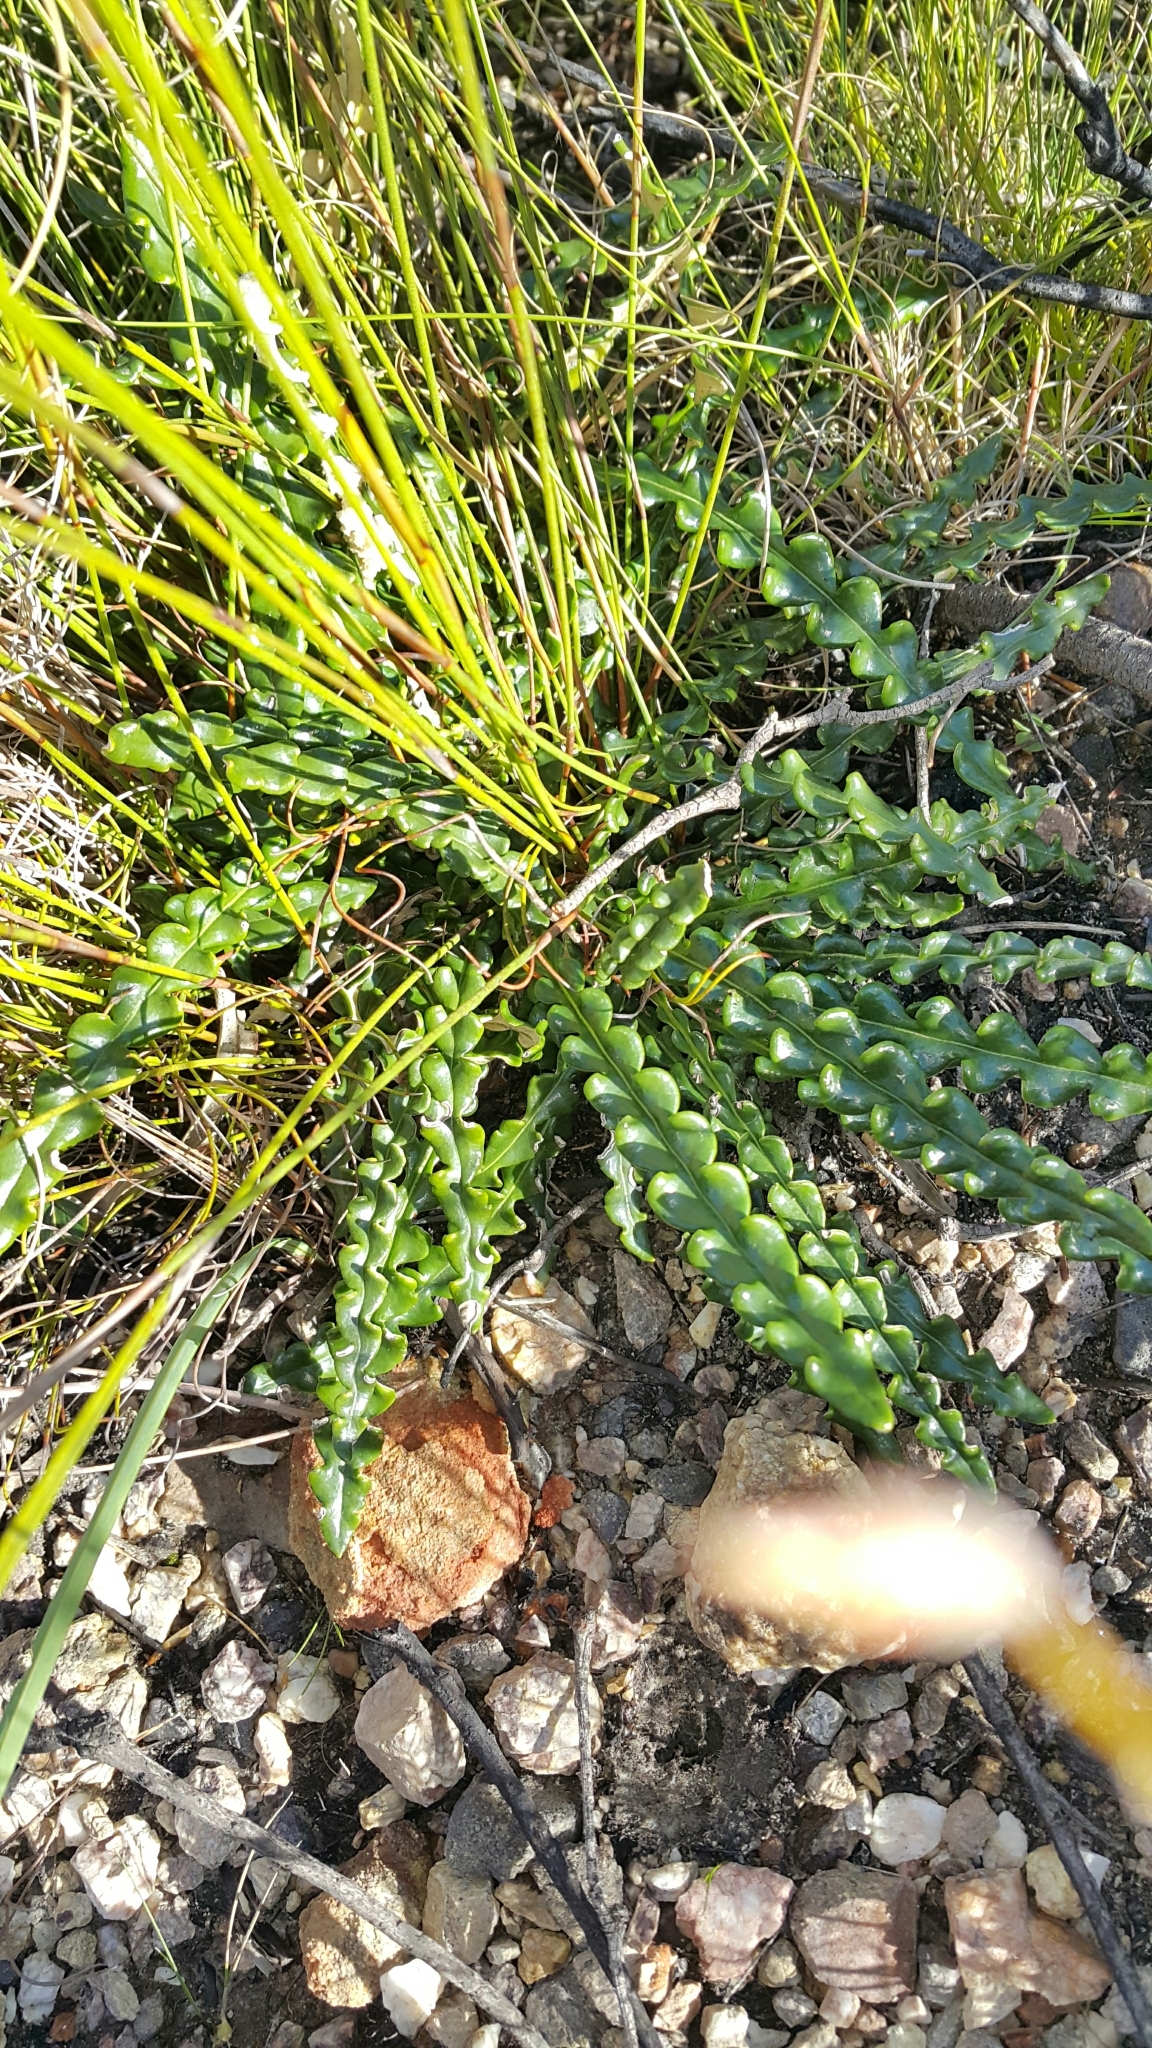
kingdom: Plantae
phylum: Tracheophyta
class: Magnoliopsida
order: Asterales
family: Asteraceae
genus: Gerbera
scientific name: Gerbera linnaei
